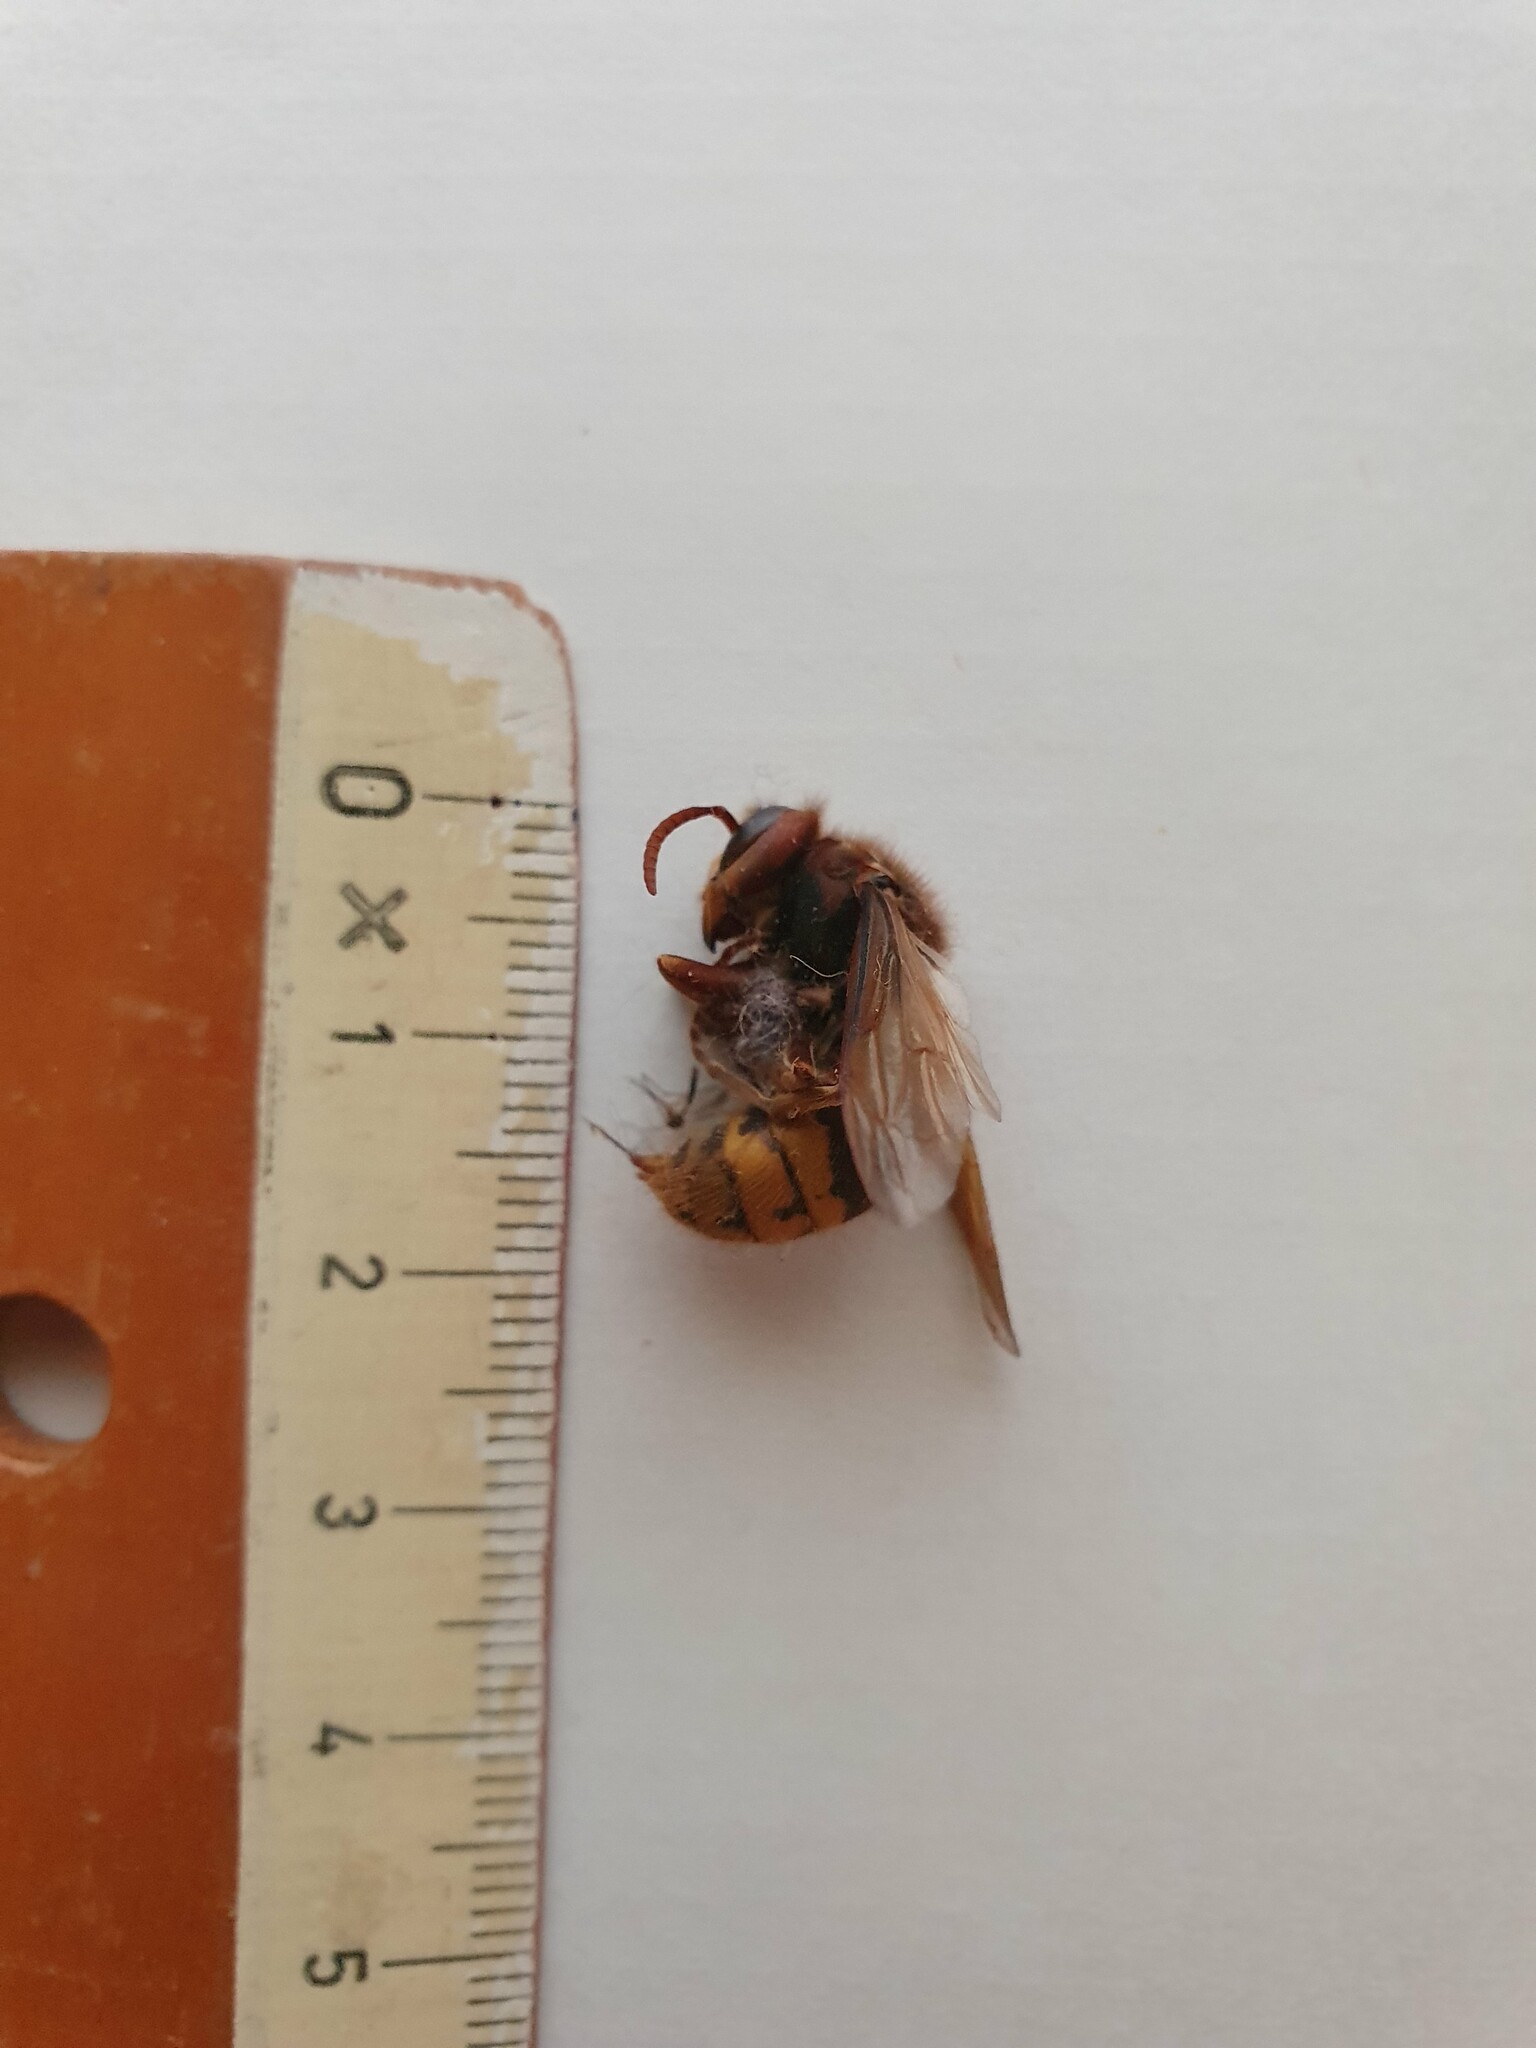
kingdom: Animalia
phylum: Arthropoda
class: Insecta
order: Hymenoptera
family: Vespidae
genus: Vespa
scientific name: Vespa crabro
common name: Hornet
